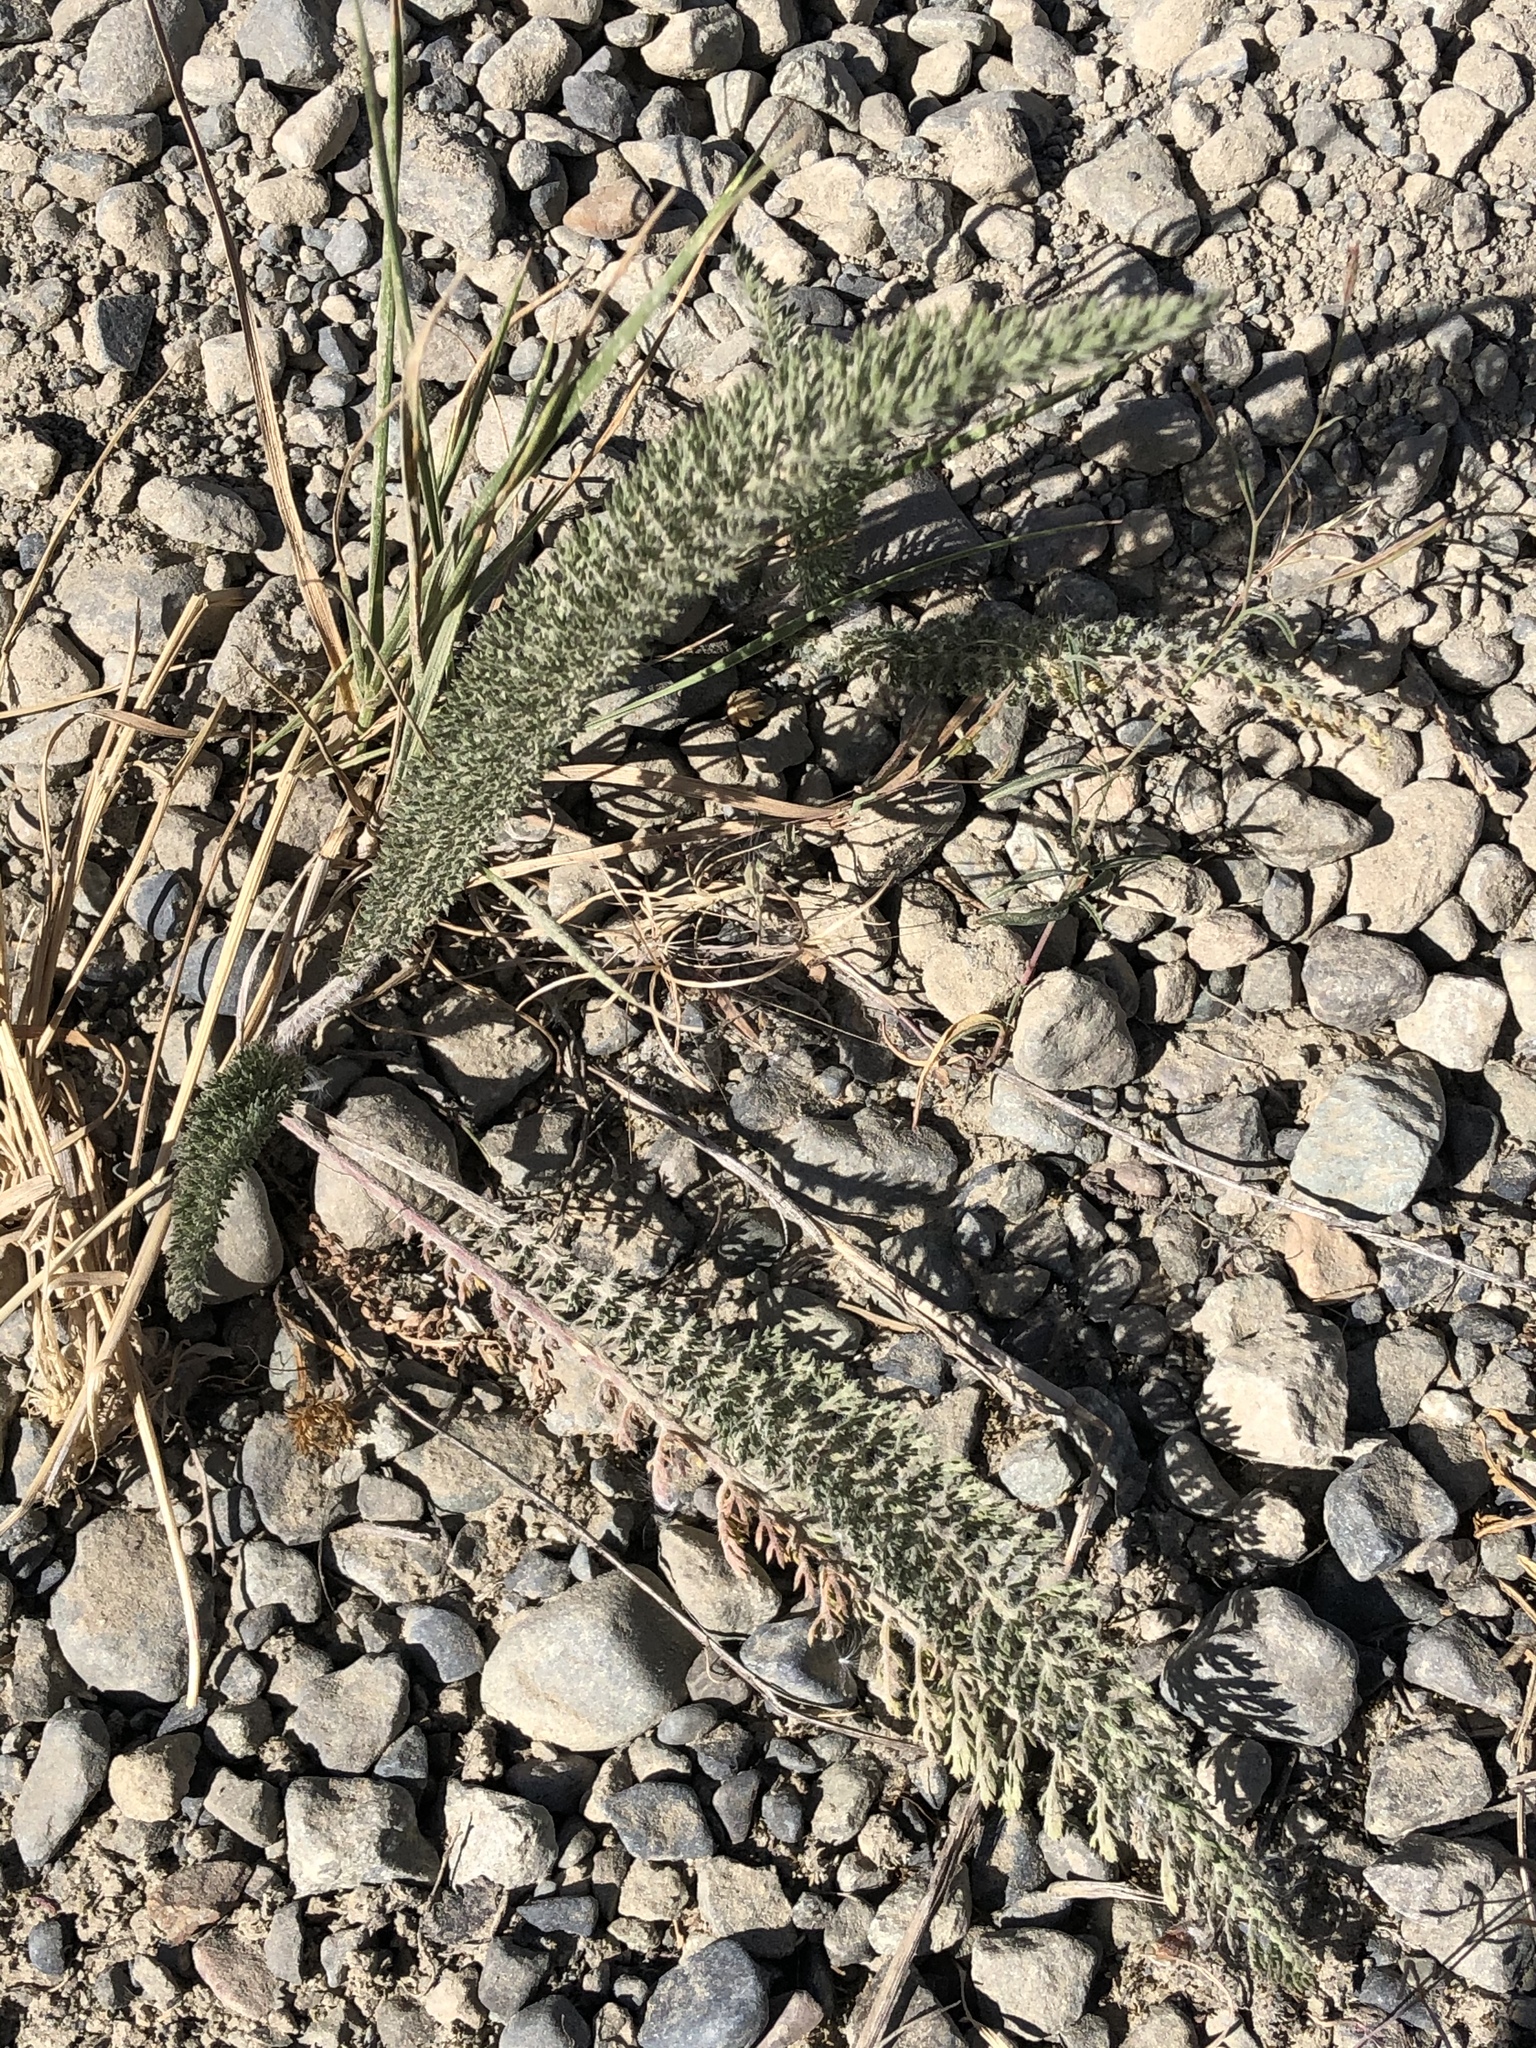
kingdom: Plantae
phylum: Tracheophyta
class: Magnoliopsida
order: Asterales
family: Asteraceae
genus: Achillea
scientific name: Achillea millefolium
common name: Yarrow
